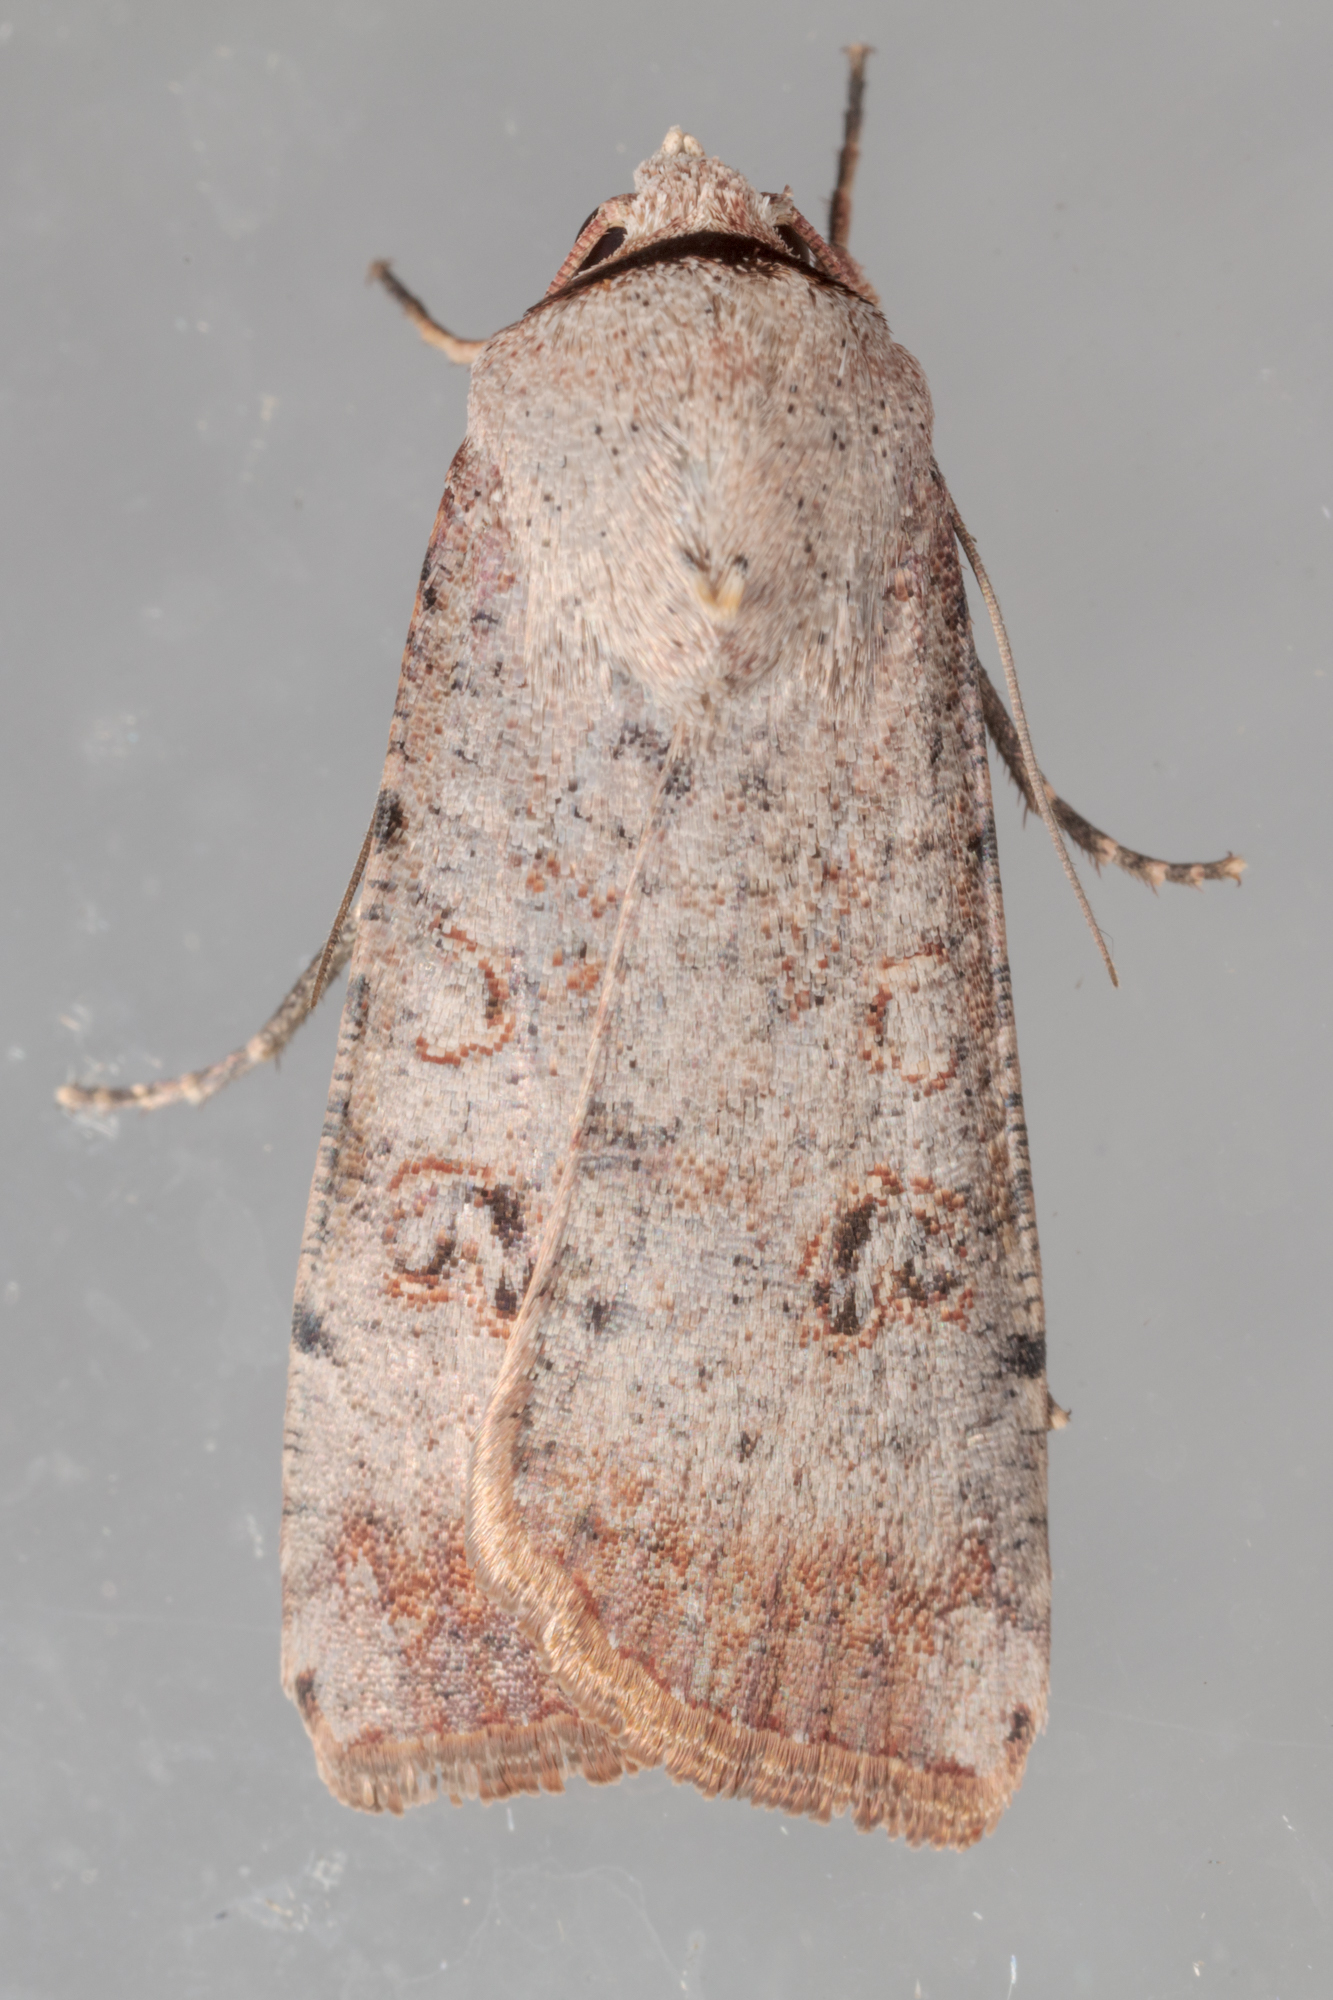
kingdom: Animalia
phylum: Arthropoda
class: Insecta
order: Lepidoptera
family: Noctuidae
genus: Anicla
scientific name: Anicla infecta
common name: Green cutworm
